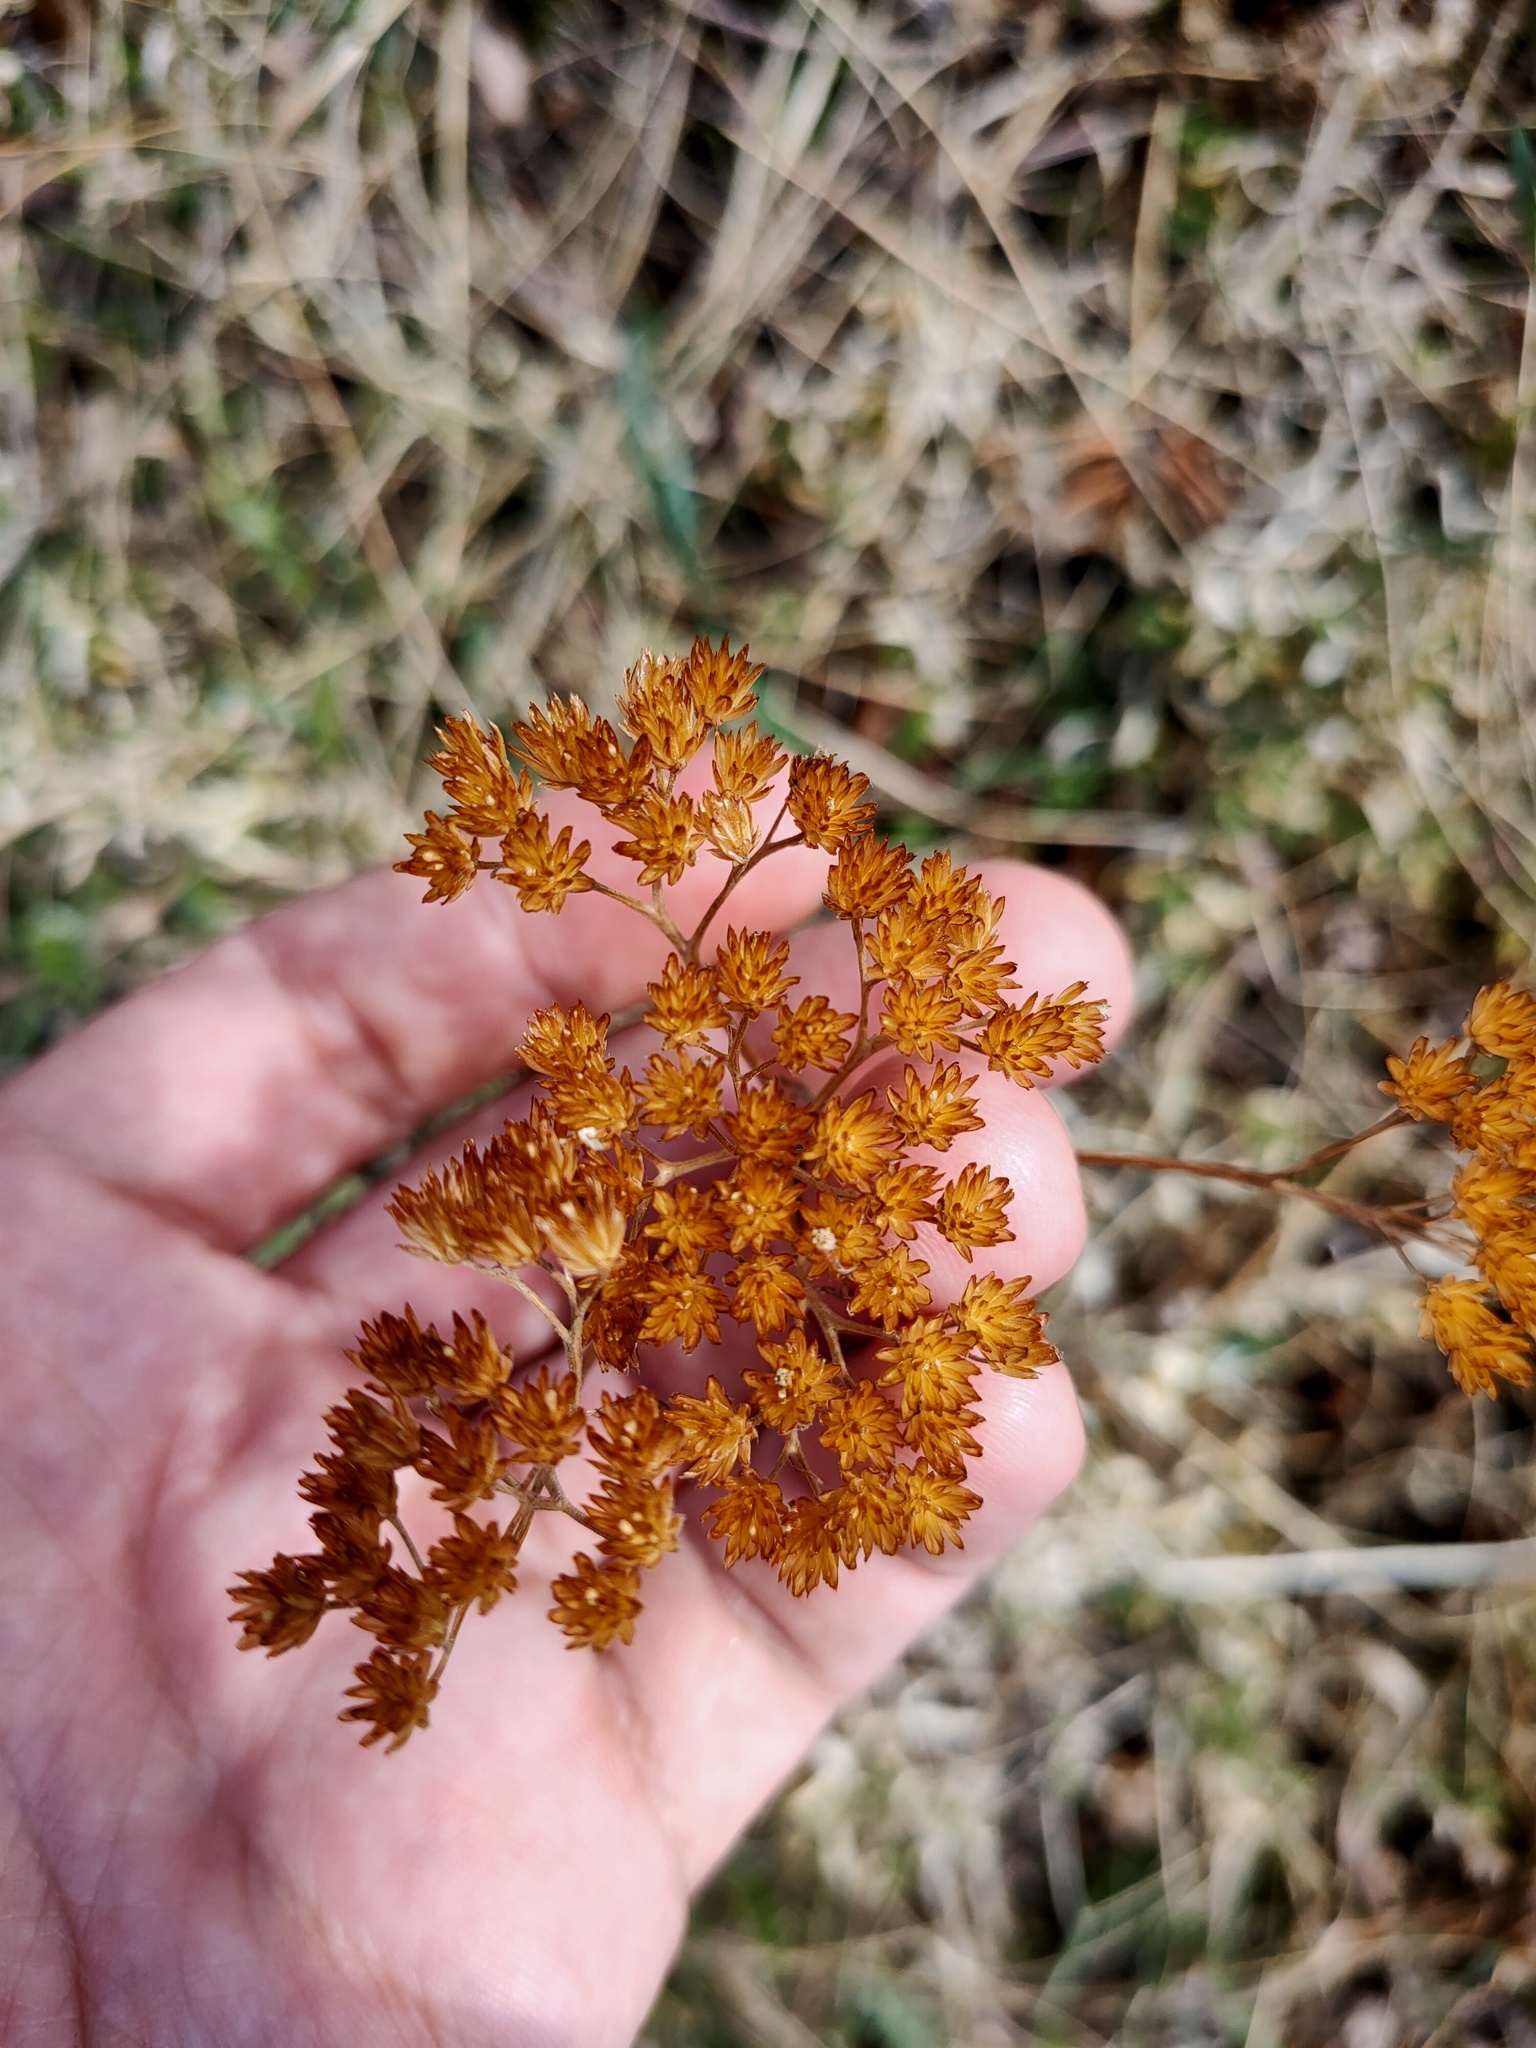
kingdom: Plantae
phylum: Tracheophyta
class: Magnoliopsida
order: Asterales
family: Asteraceae
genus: Achillea
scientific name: Achillea
